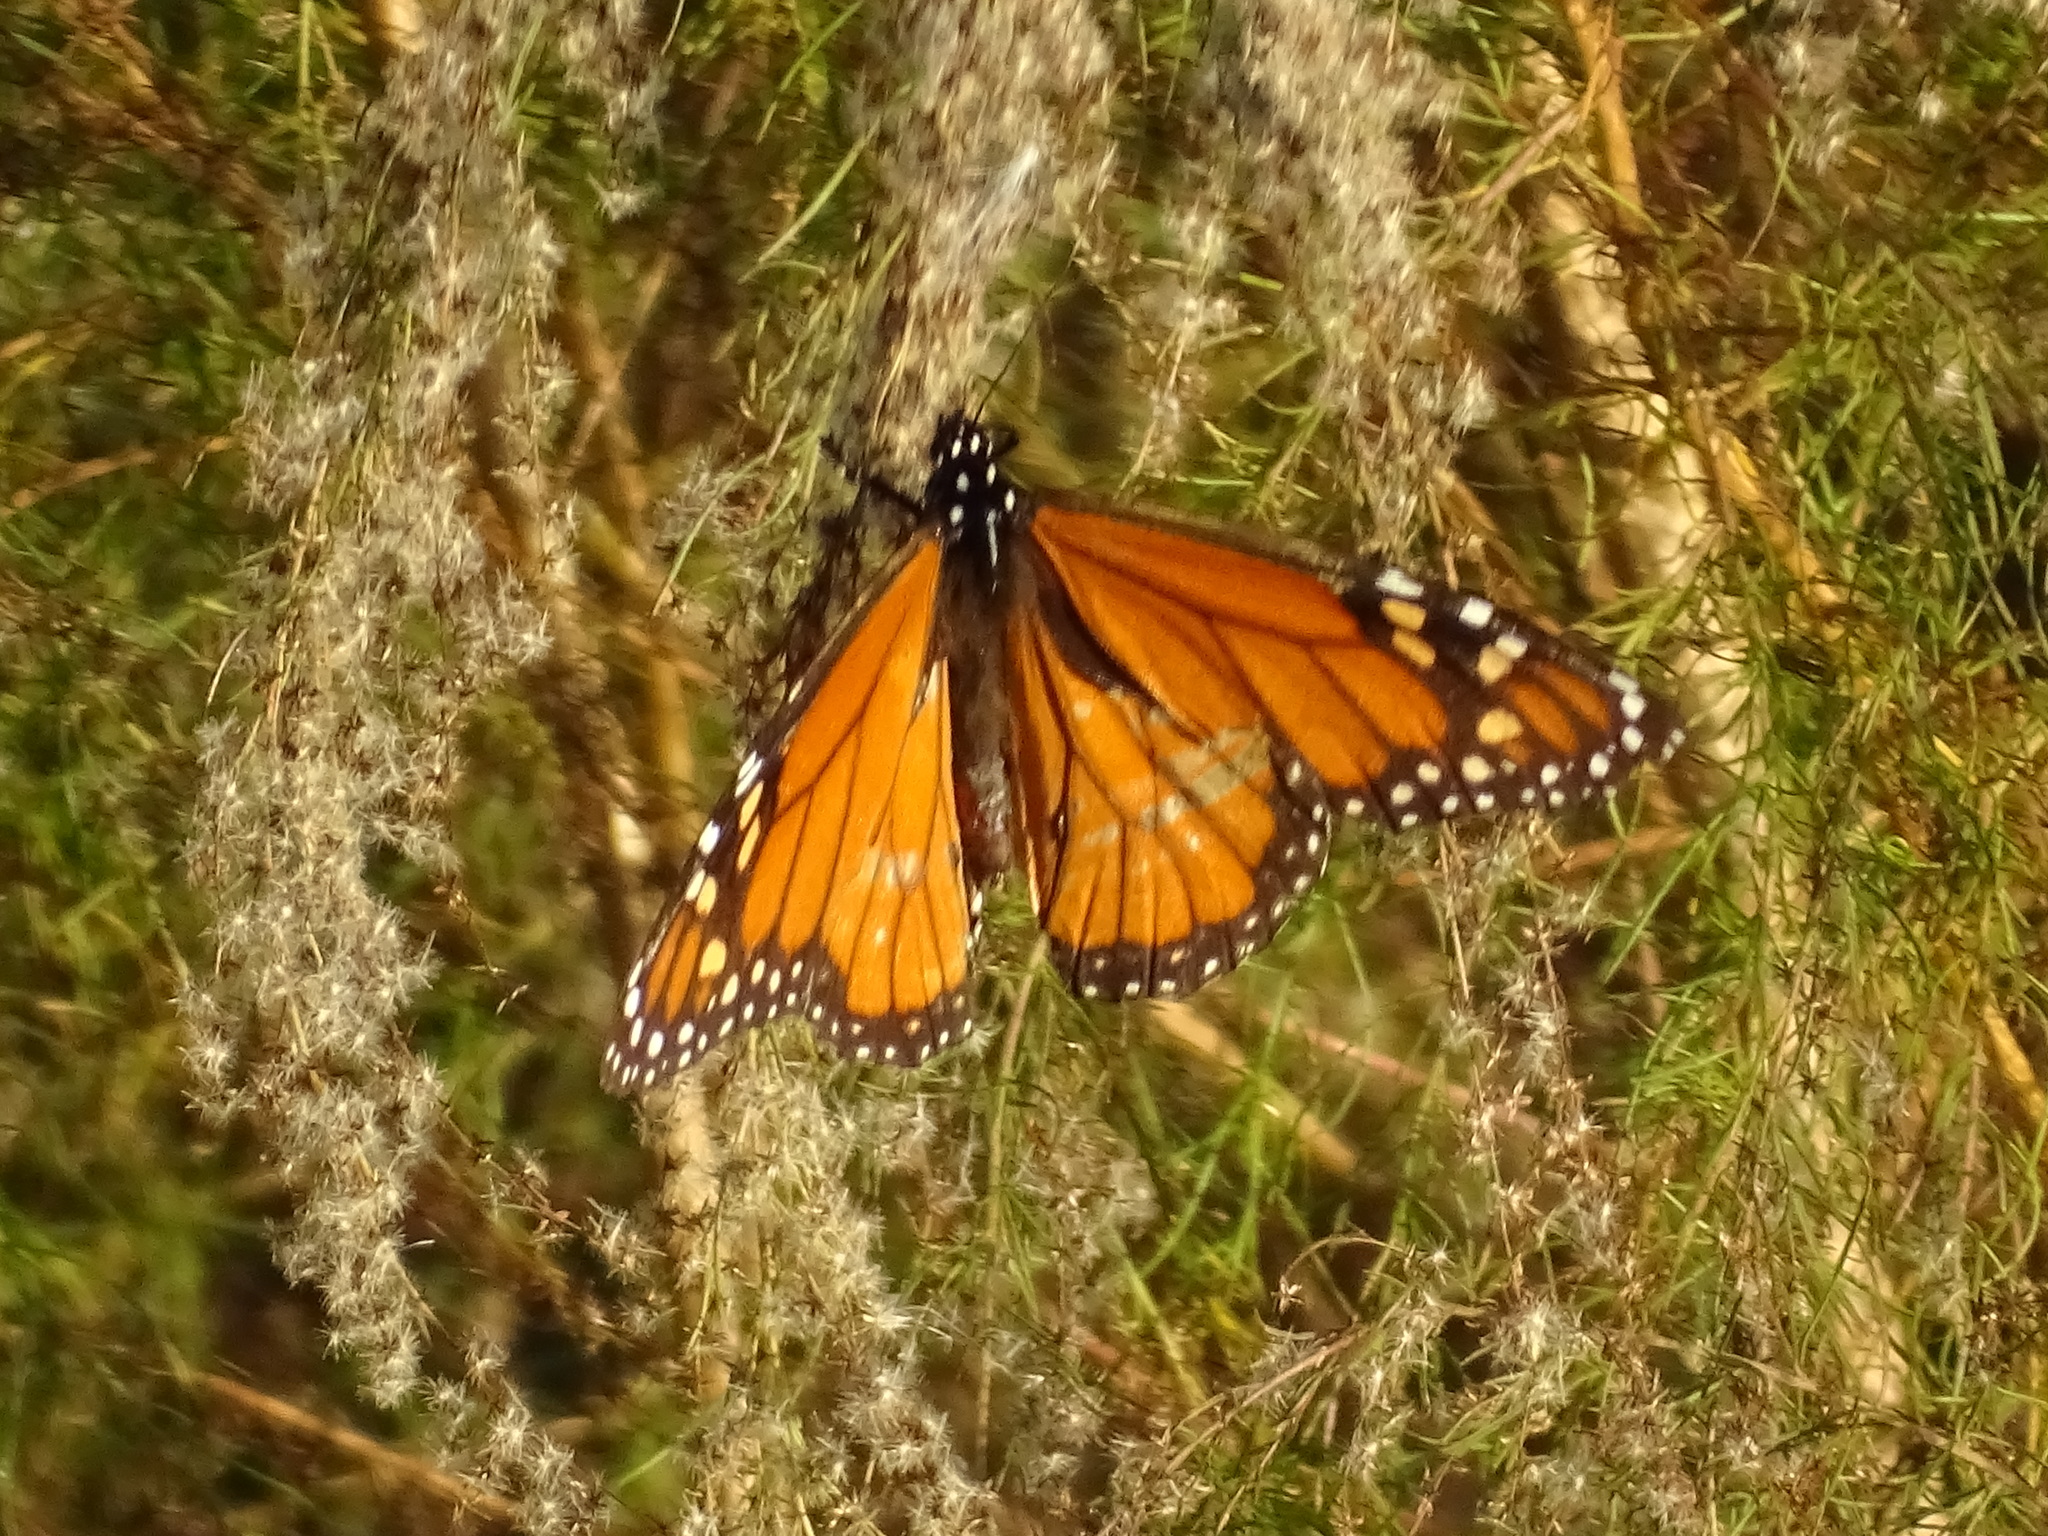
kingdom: Animalia
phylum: Arthropoda
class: Insecta
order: Lepidoptera
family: Nymphalidae
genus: Danaus
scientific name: Danaus plexippus
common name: Monarch
